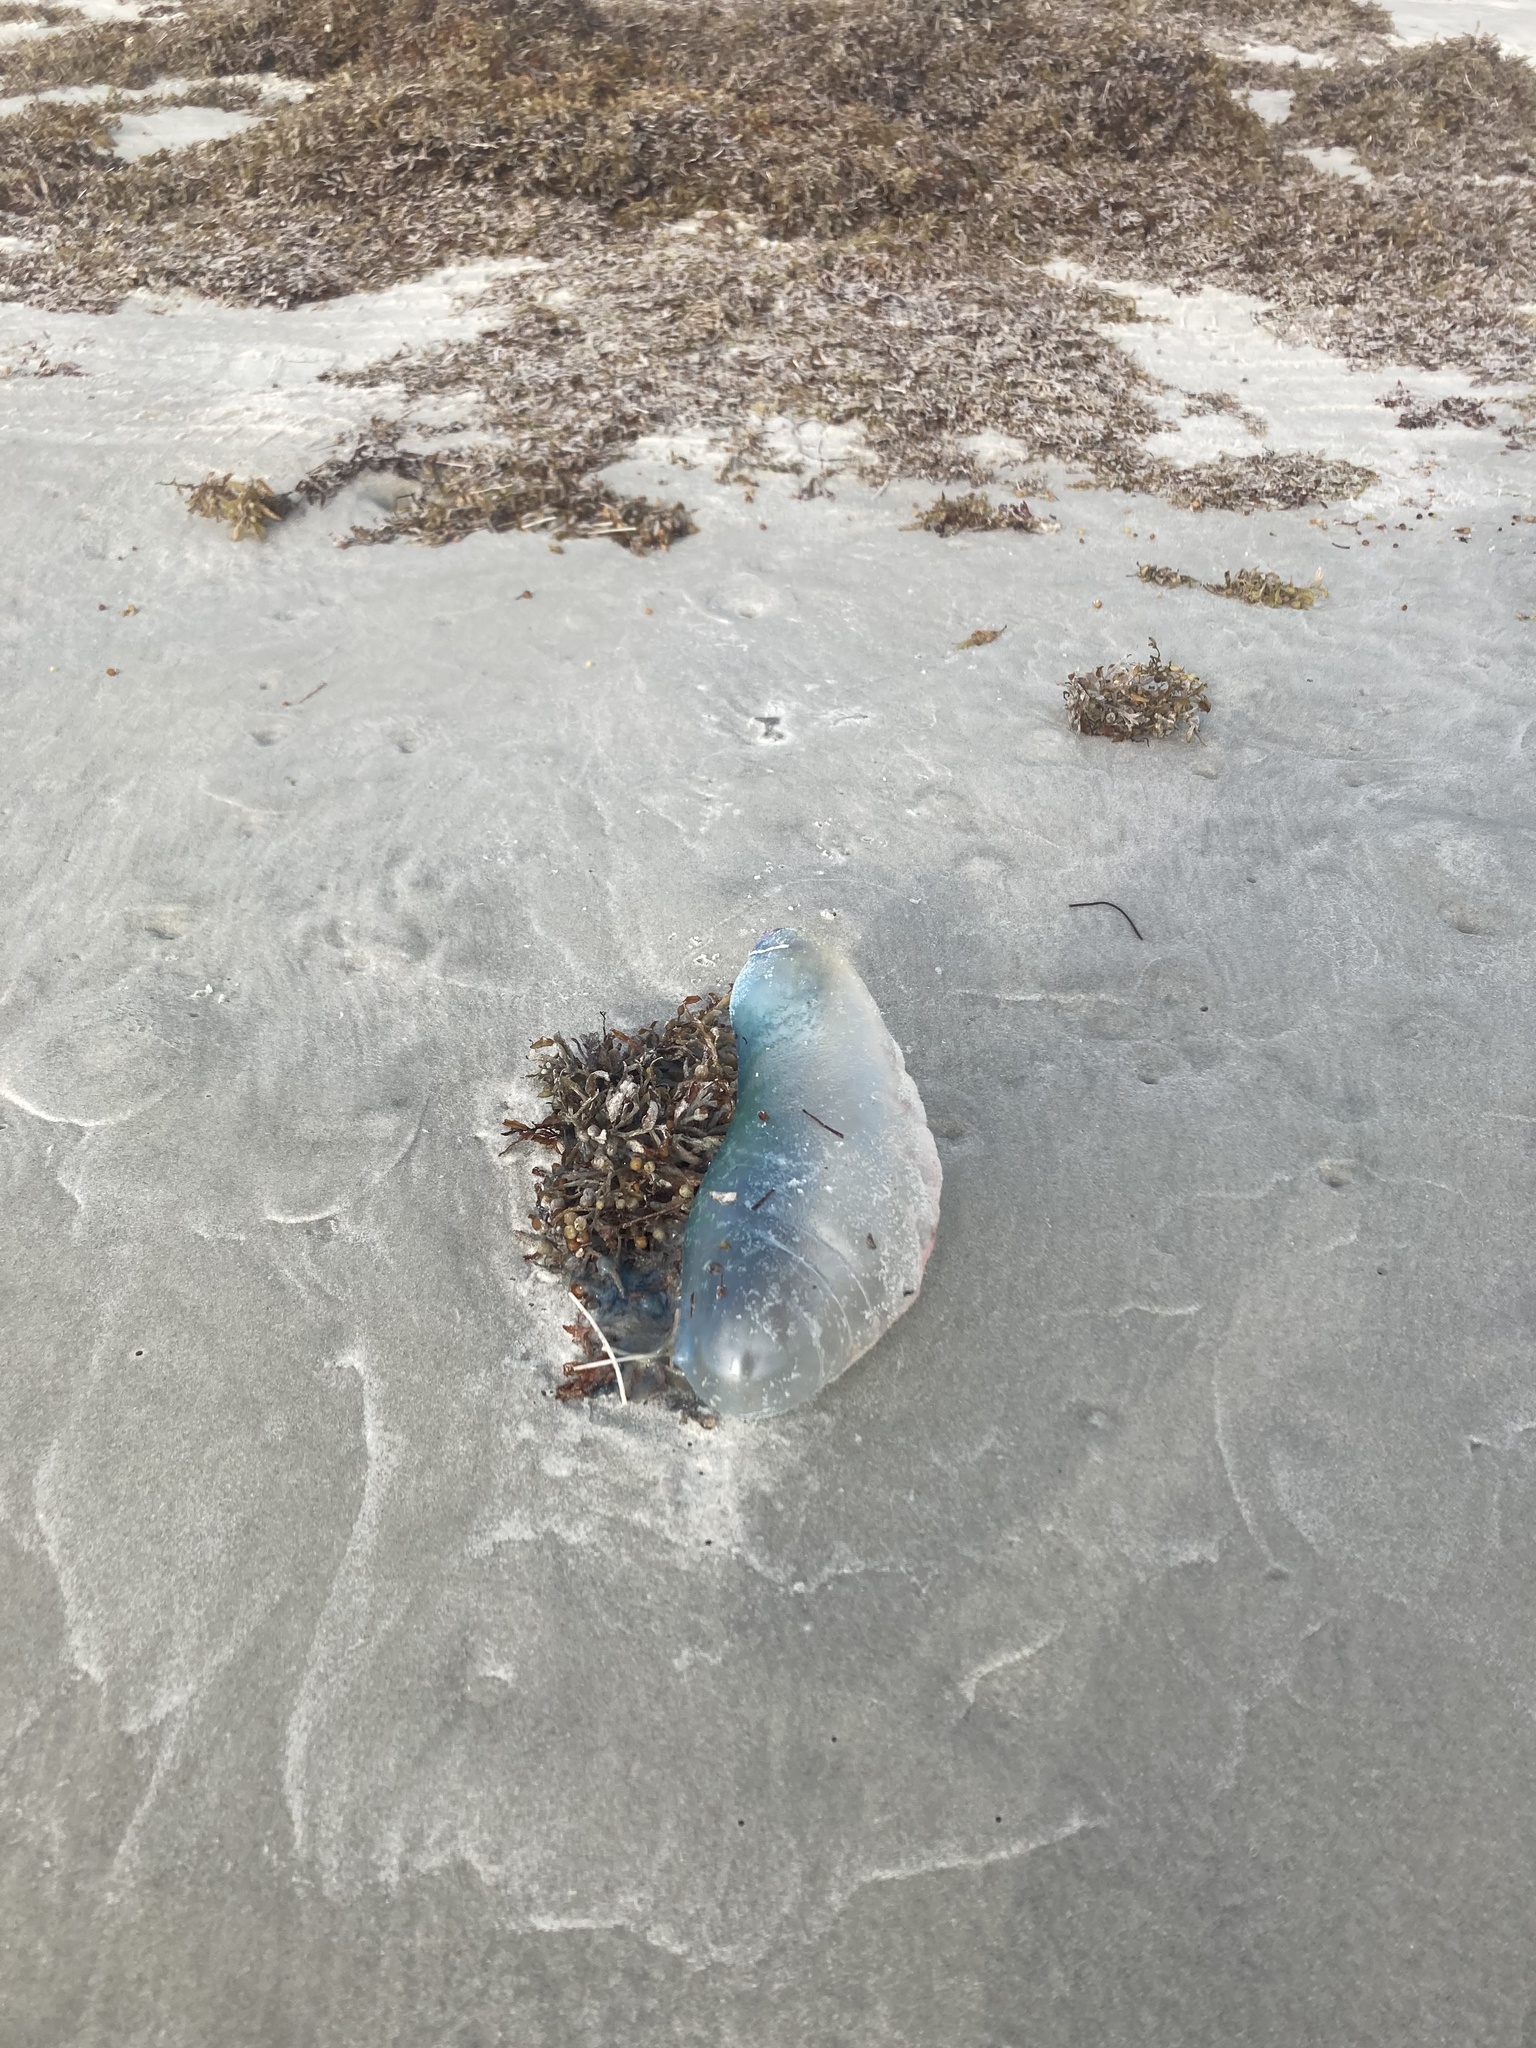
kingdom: Animalia
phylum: Cnidaria
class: Hydrozoa
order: Siphonophorae
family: Physaliidae
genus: Physalia
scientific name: Physalia physalis
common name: Portuguese man-of-war
